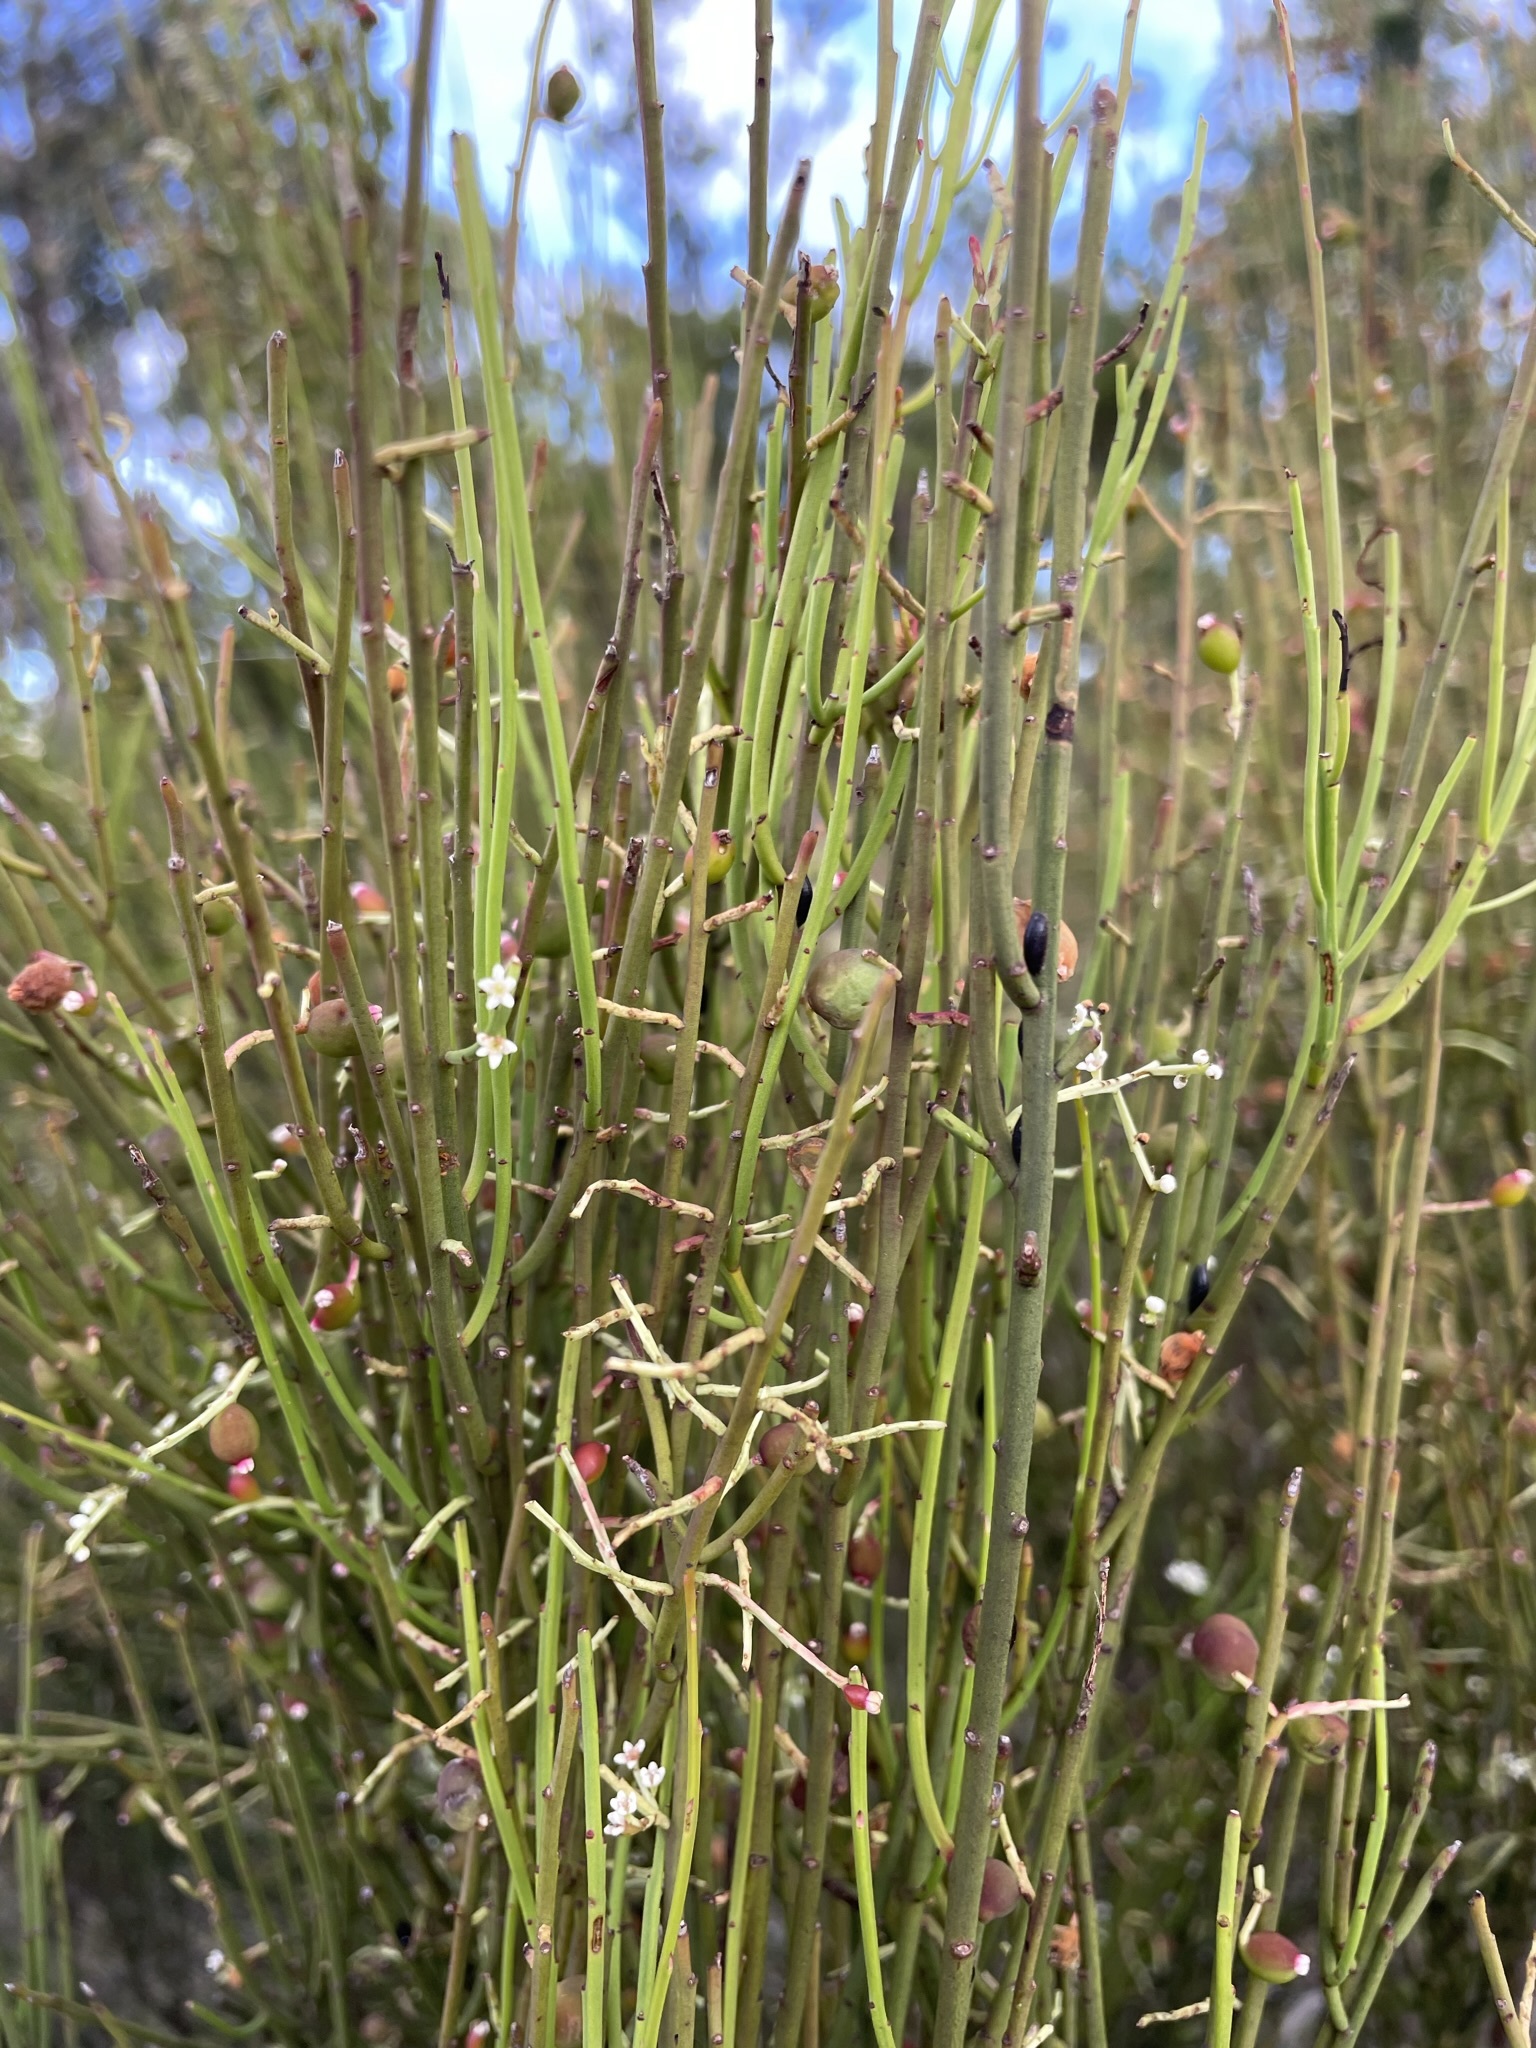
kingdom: Plantae
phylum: Tracheophyta
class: Magnoliopsida
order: Santalales
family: Amphorogynaceae
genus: Leptomeria
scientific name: Leptomeria drupacea
